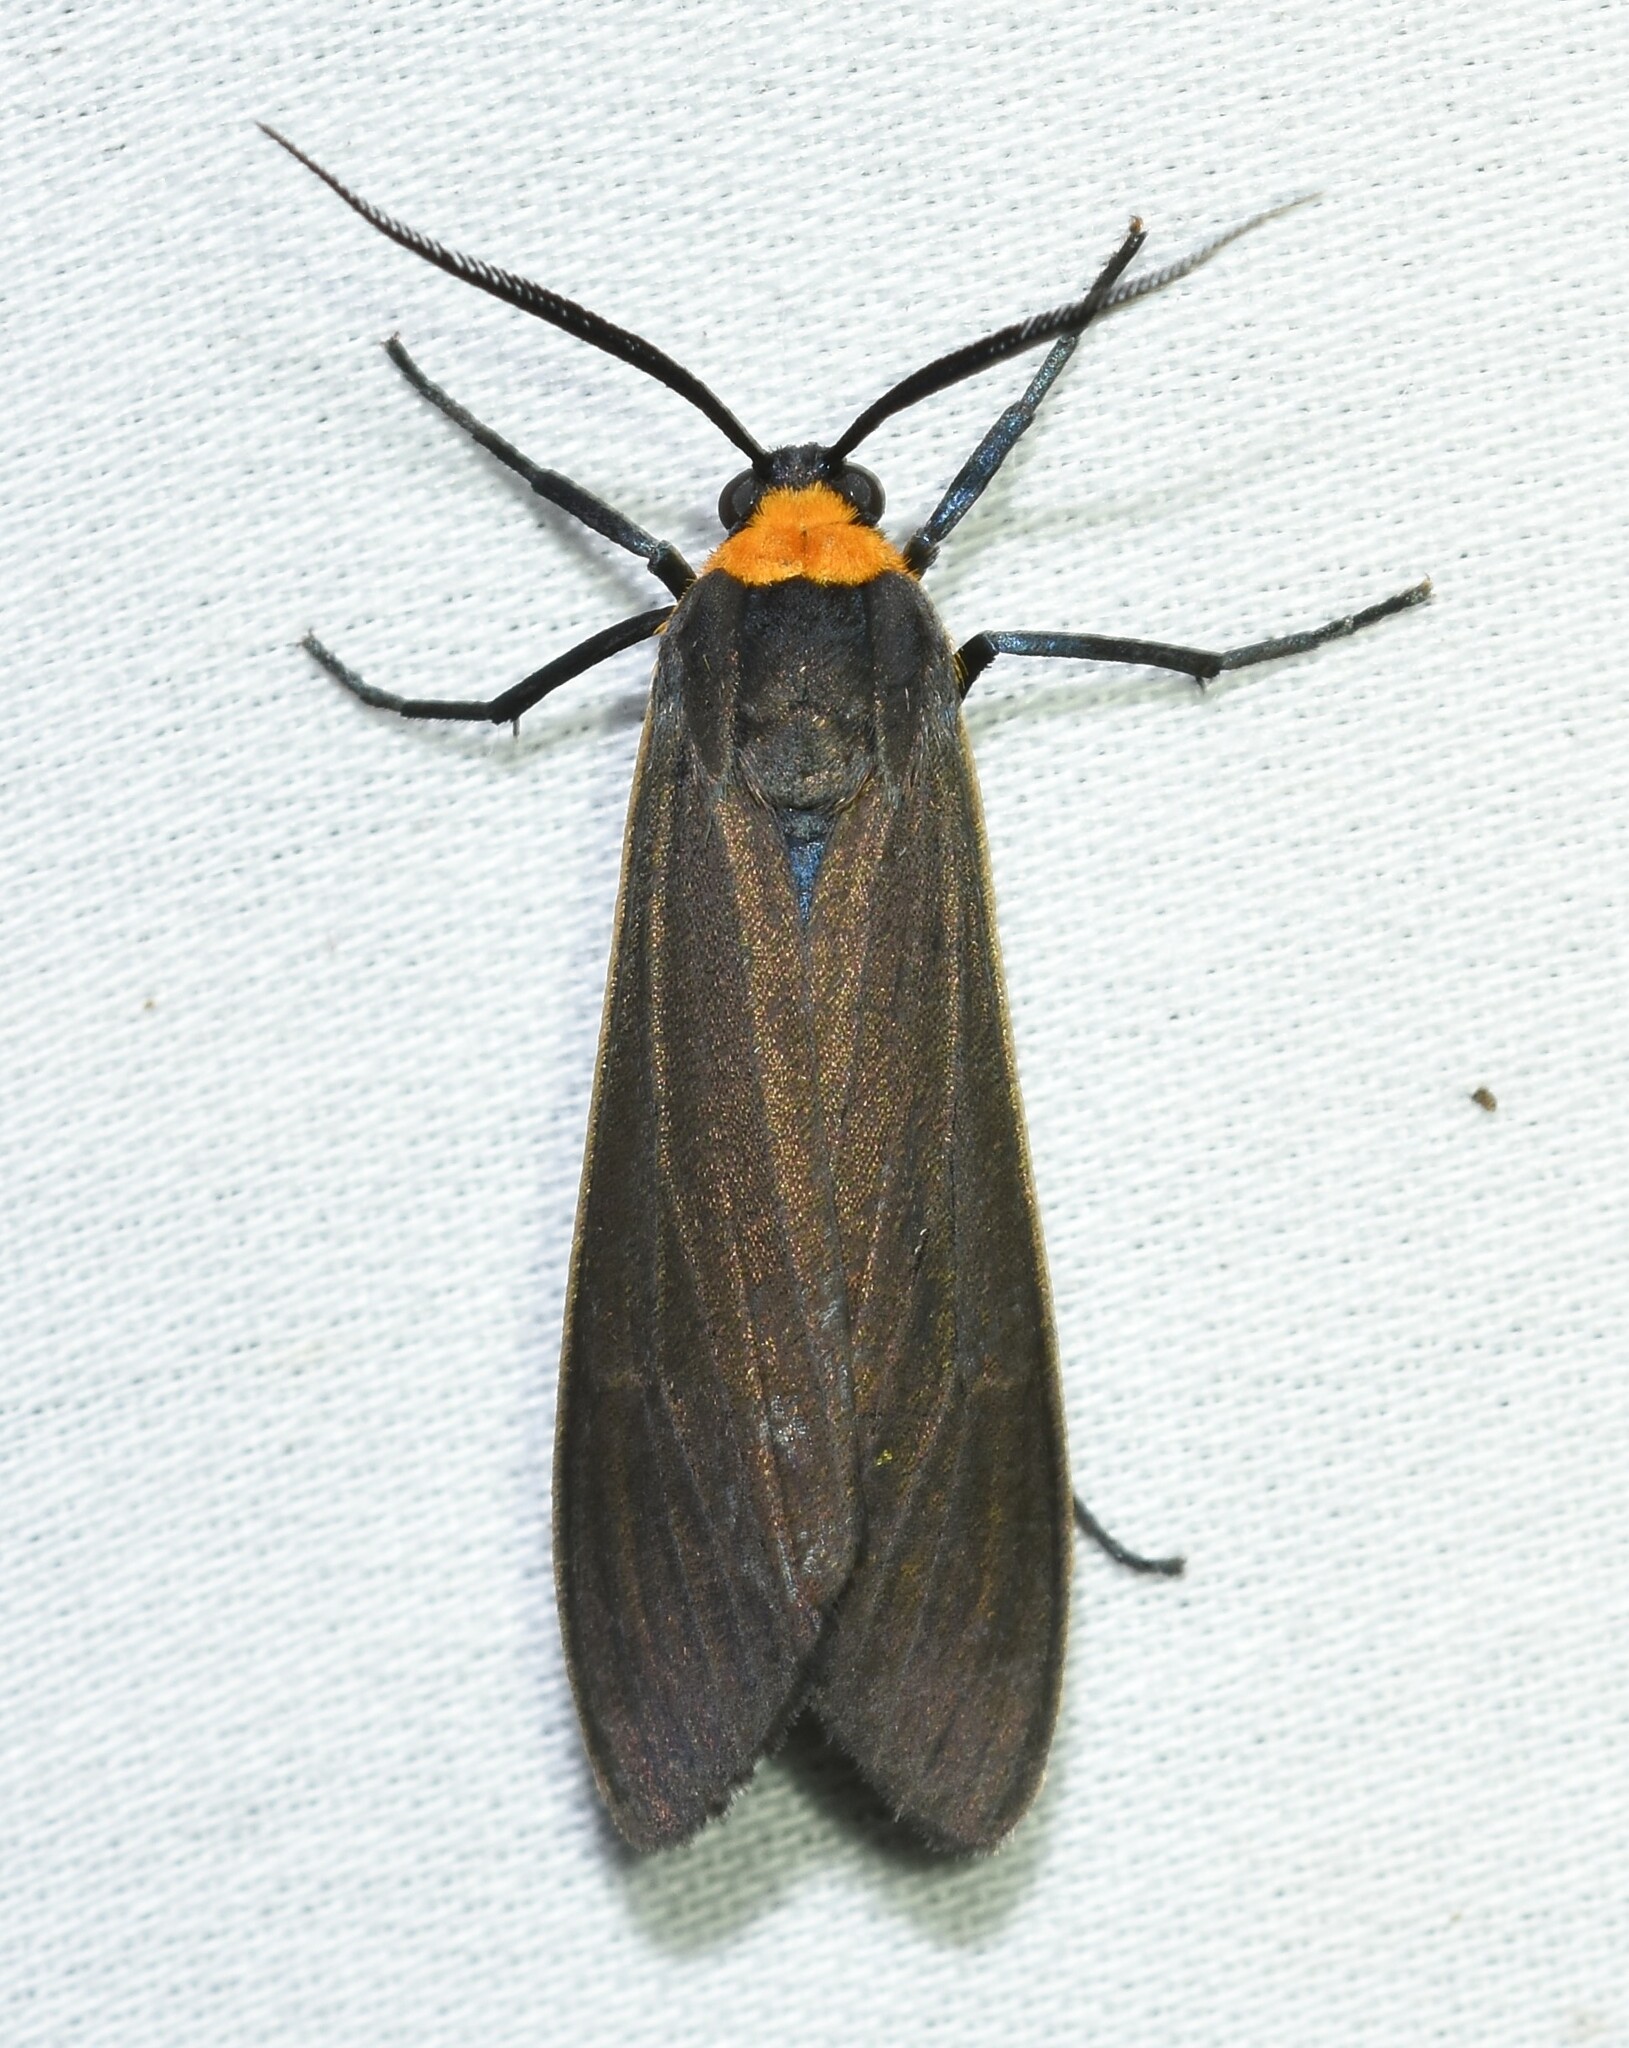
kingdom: Animalia
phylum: Arthropoda
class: Insecta
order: Lepidoptera
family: Erebidae
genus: Cisseps
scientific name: Cisseps fulvicollis
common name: Yellow-collared scape moth
